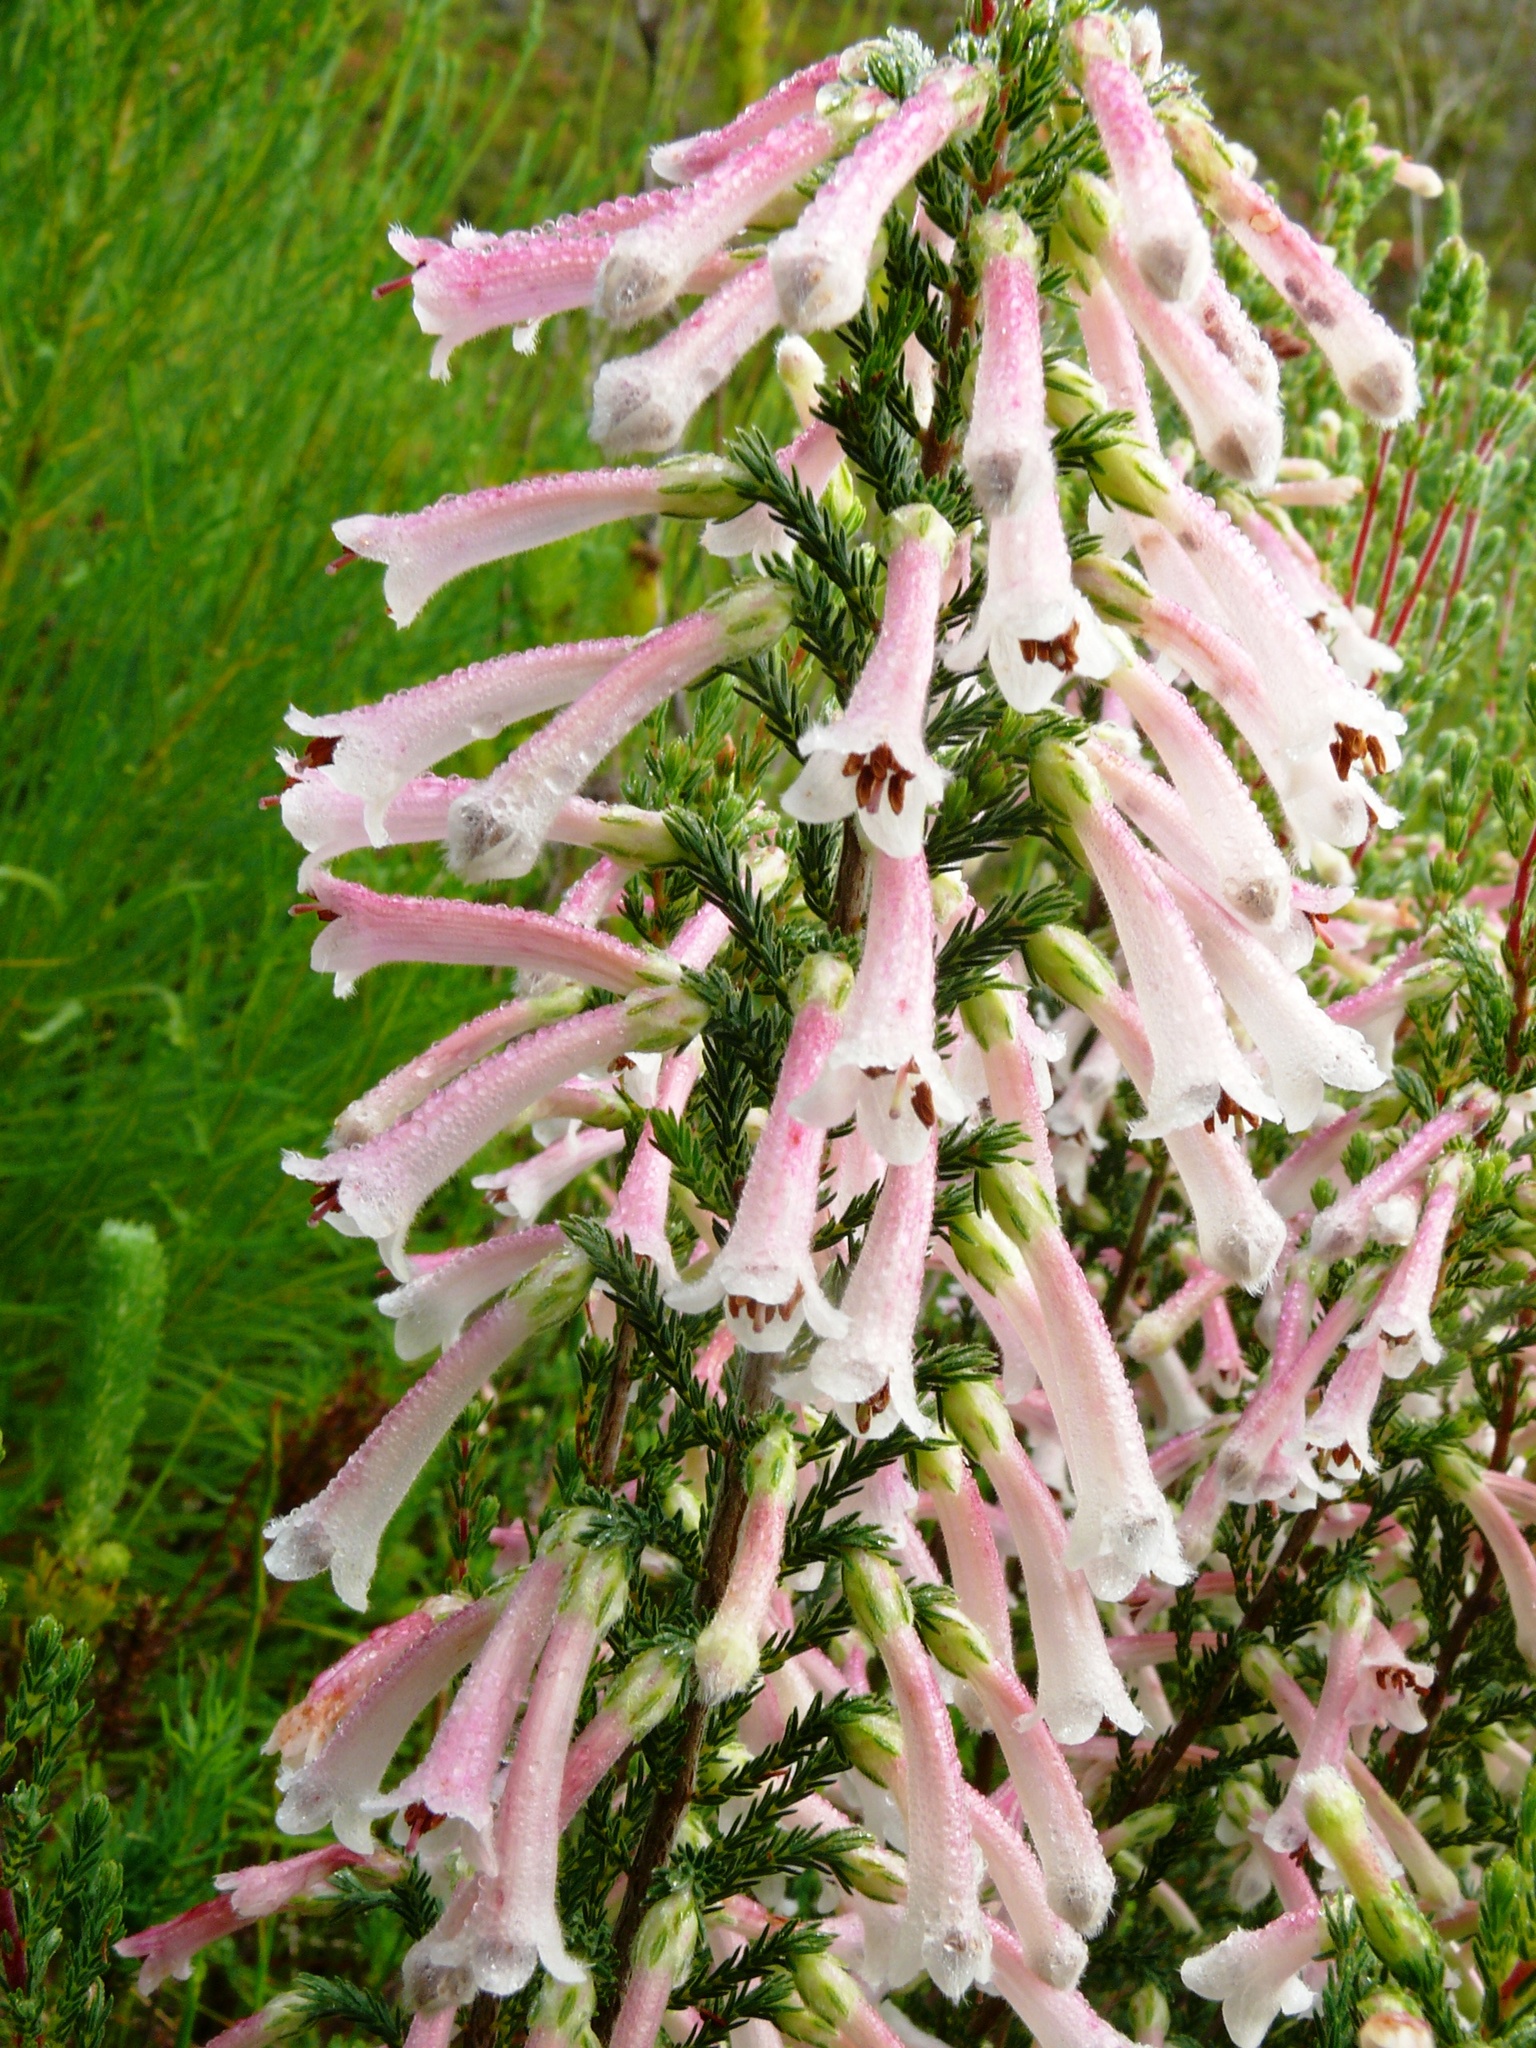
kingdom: Plantae
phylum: Tracheophyta
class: Magnoliopsida
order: Ericales
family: Ericaceae
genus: Erica
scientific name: Erica curviflora
